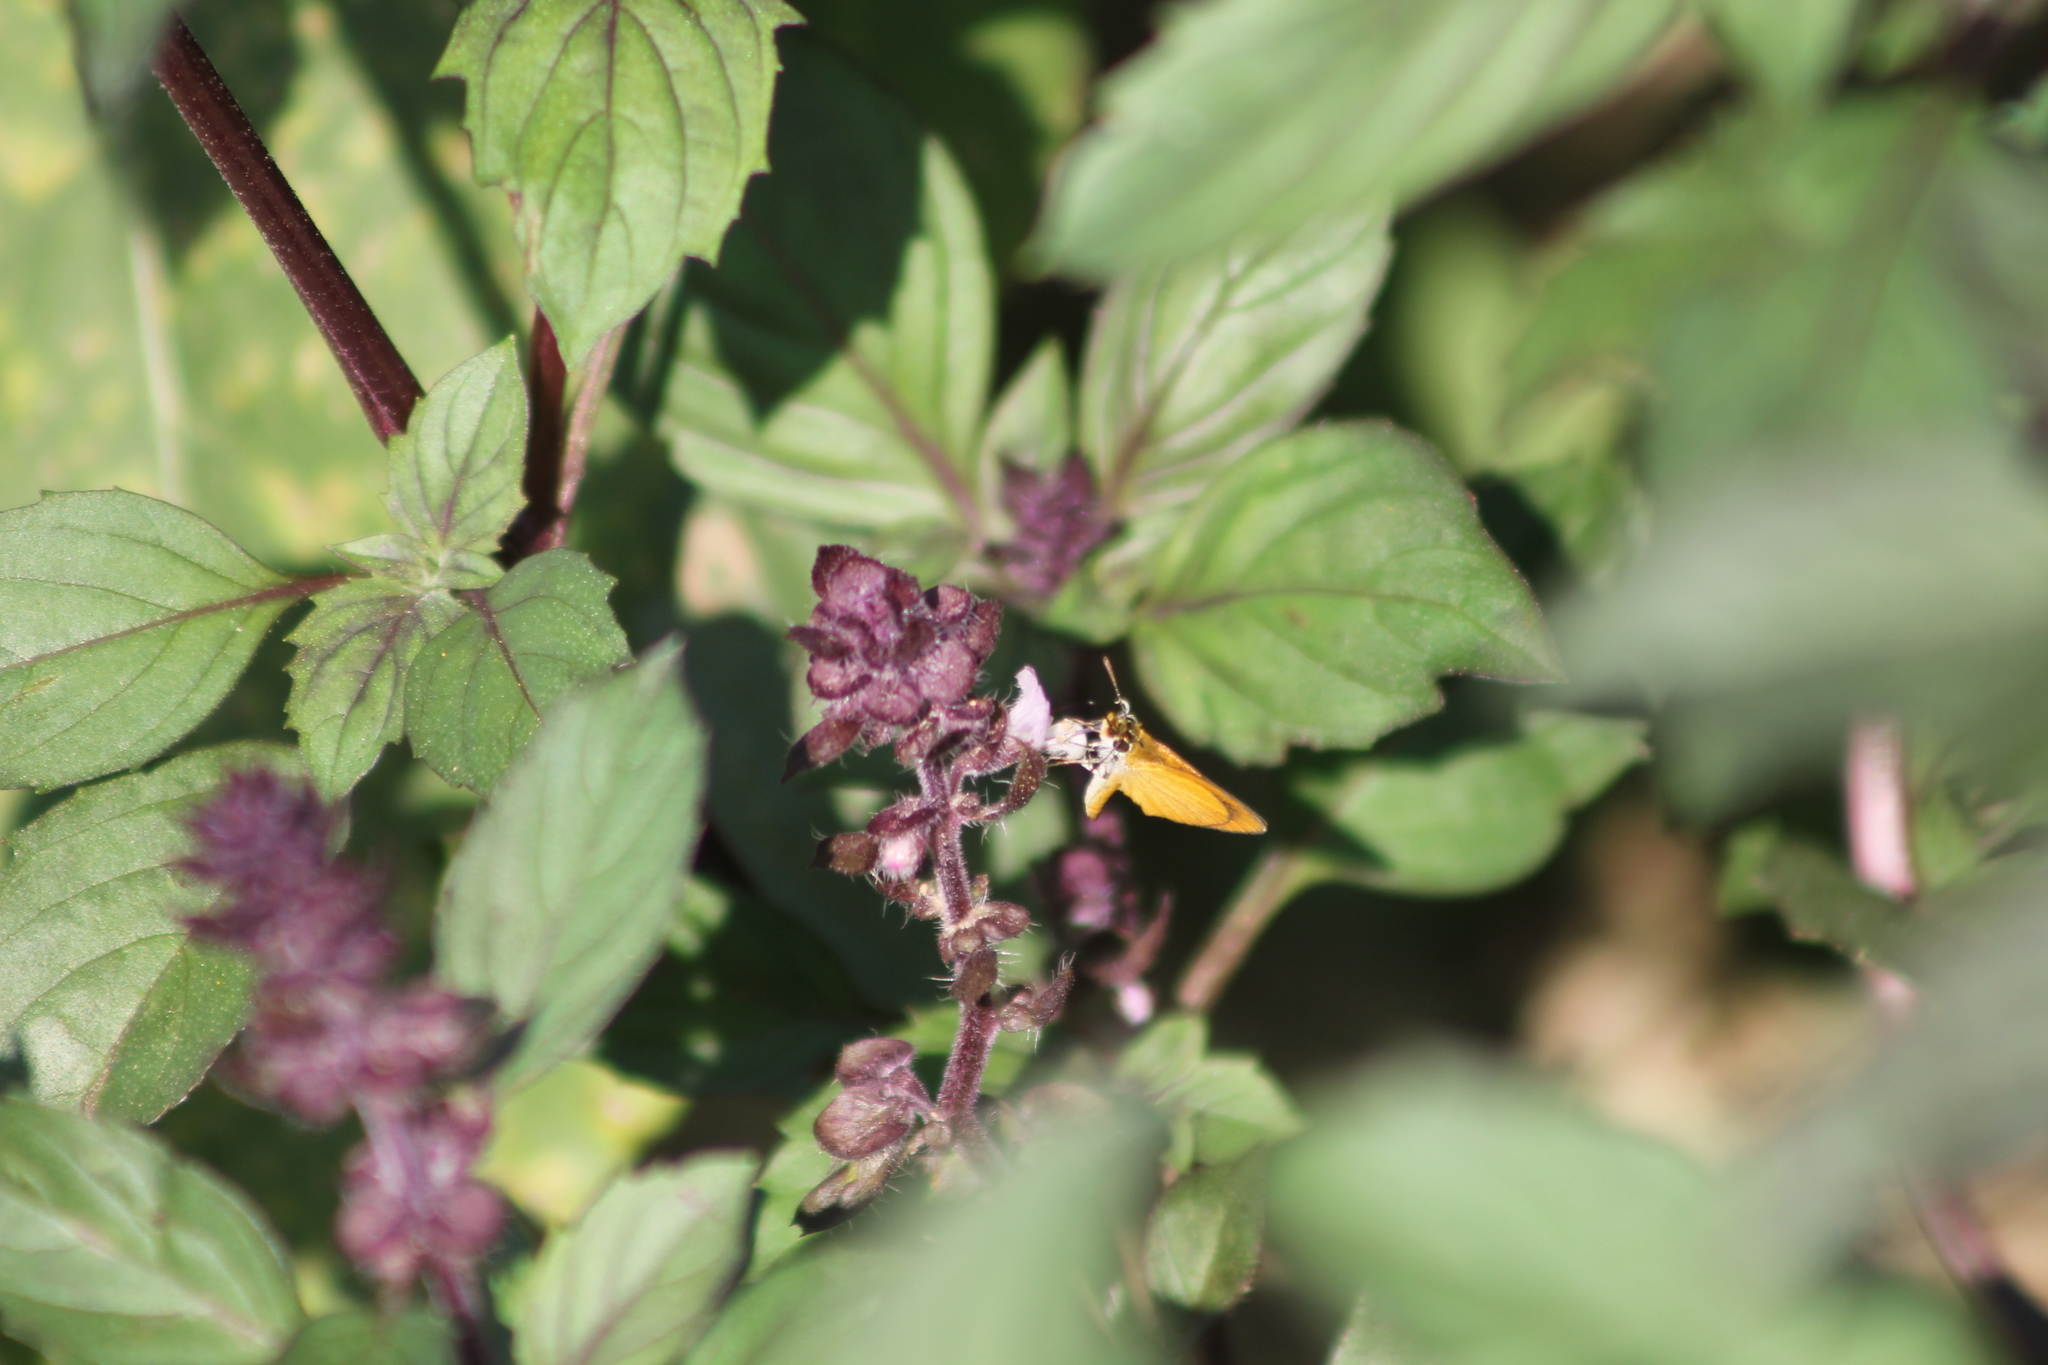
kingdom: Animalia
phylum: Arthropoda
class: Insecta
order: Lepidoptera
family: Hesperiidae
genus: Ancyloxypha
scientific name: Ancyloxypha numitor
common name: Least skipper
